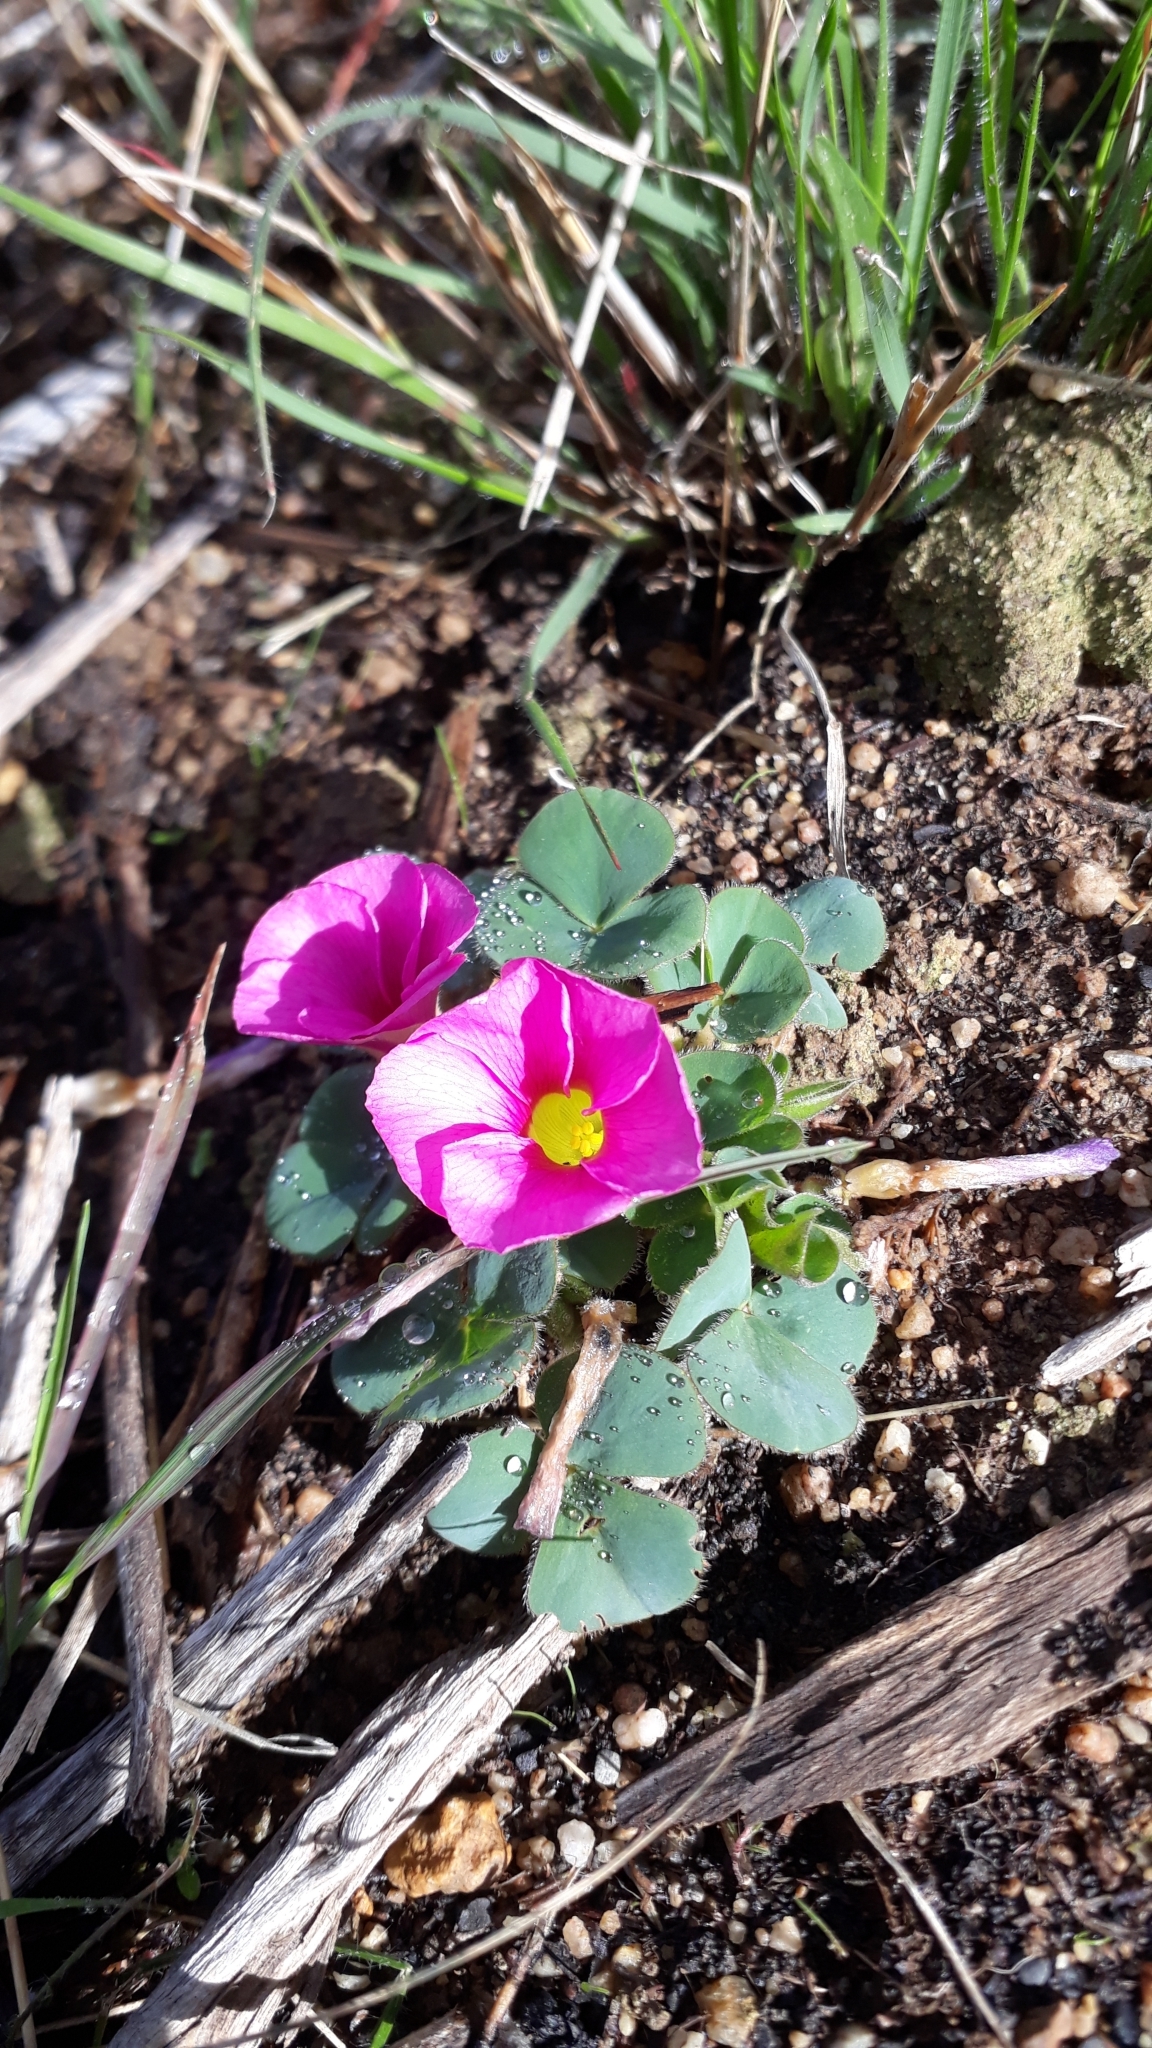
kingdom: Plantae
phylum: Tracheophyta
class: Magnoliopsida
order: Oxalidales
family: Oxalidaceae
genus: Oxalis
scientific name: Oxalis purpurea
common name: Purple woodsorrel
